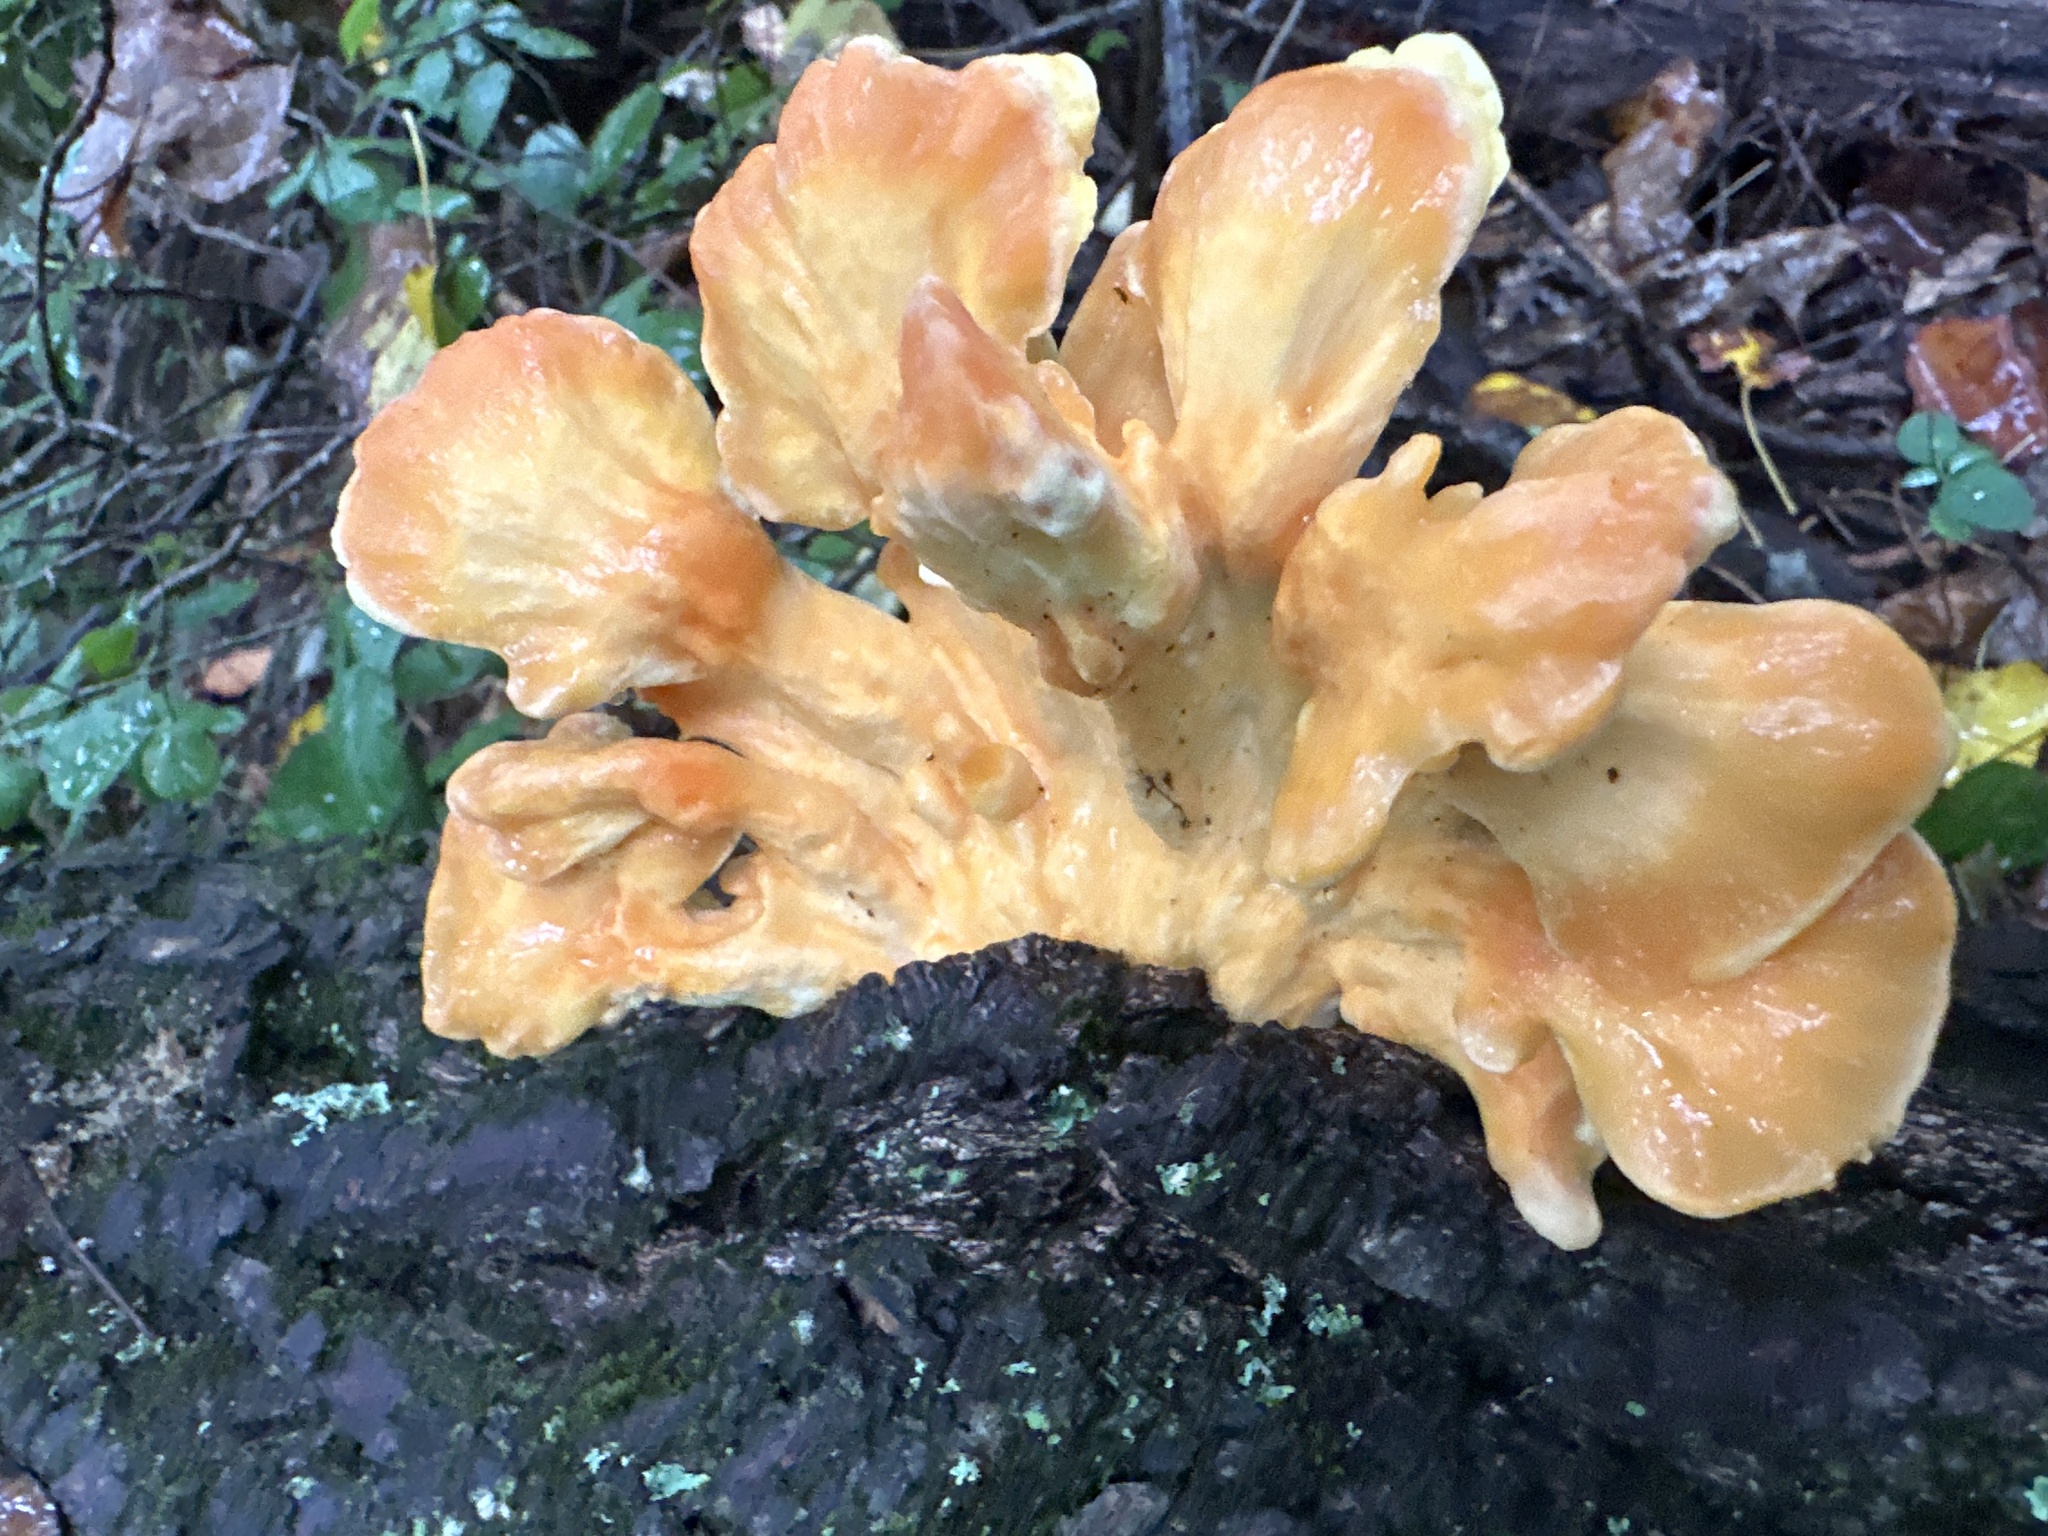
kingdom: Fungi
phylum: Basidiomycota
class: Agaricomycetes
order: Polyporales
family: Laetiporaceae
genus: Laetiporus
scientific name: Laetiporus sulphureus
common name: Chicken of the woods
